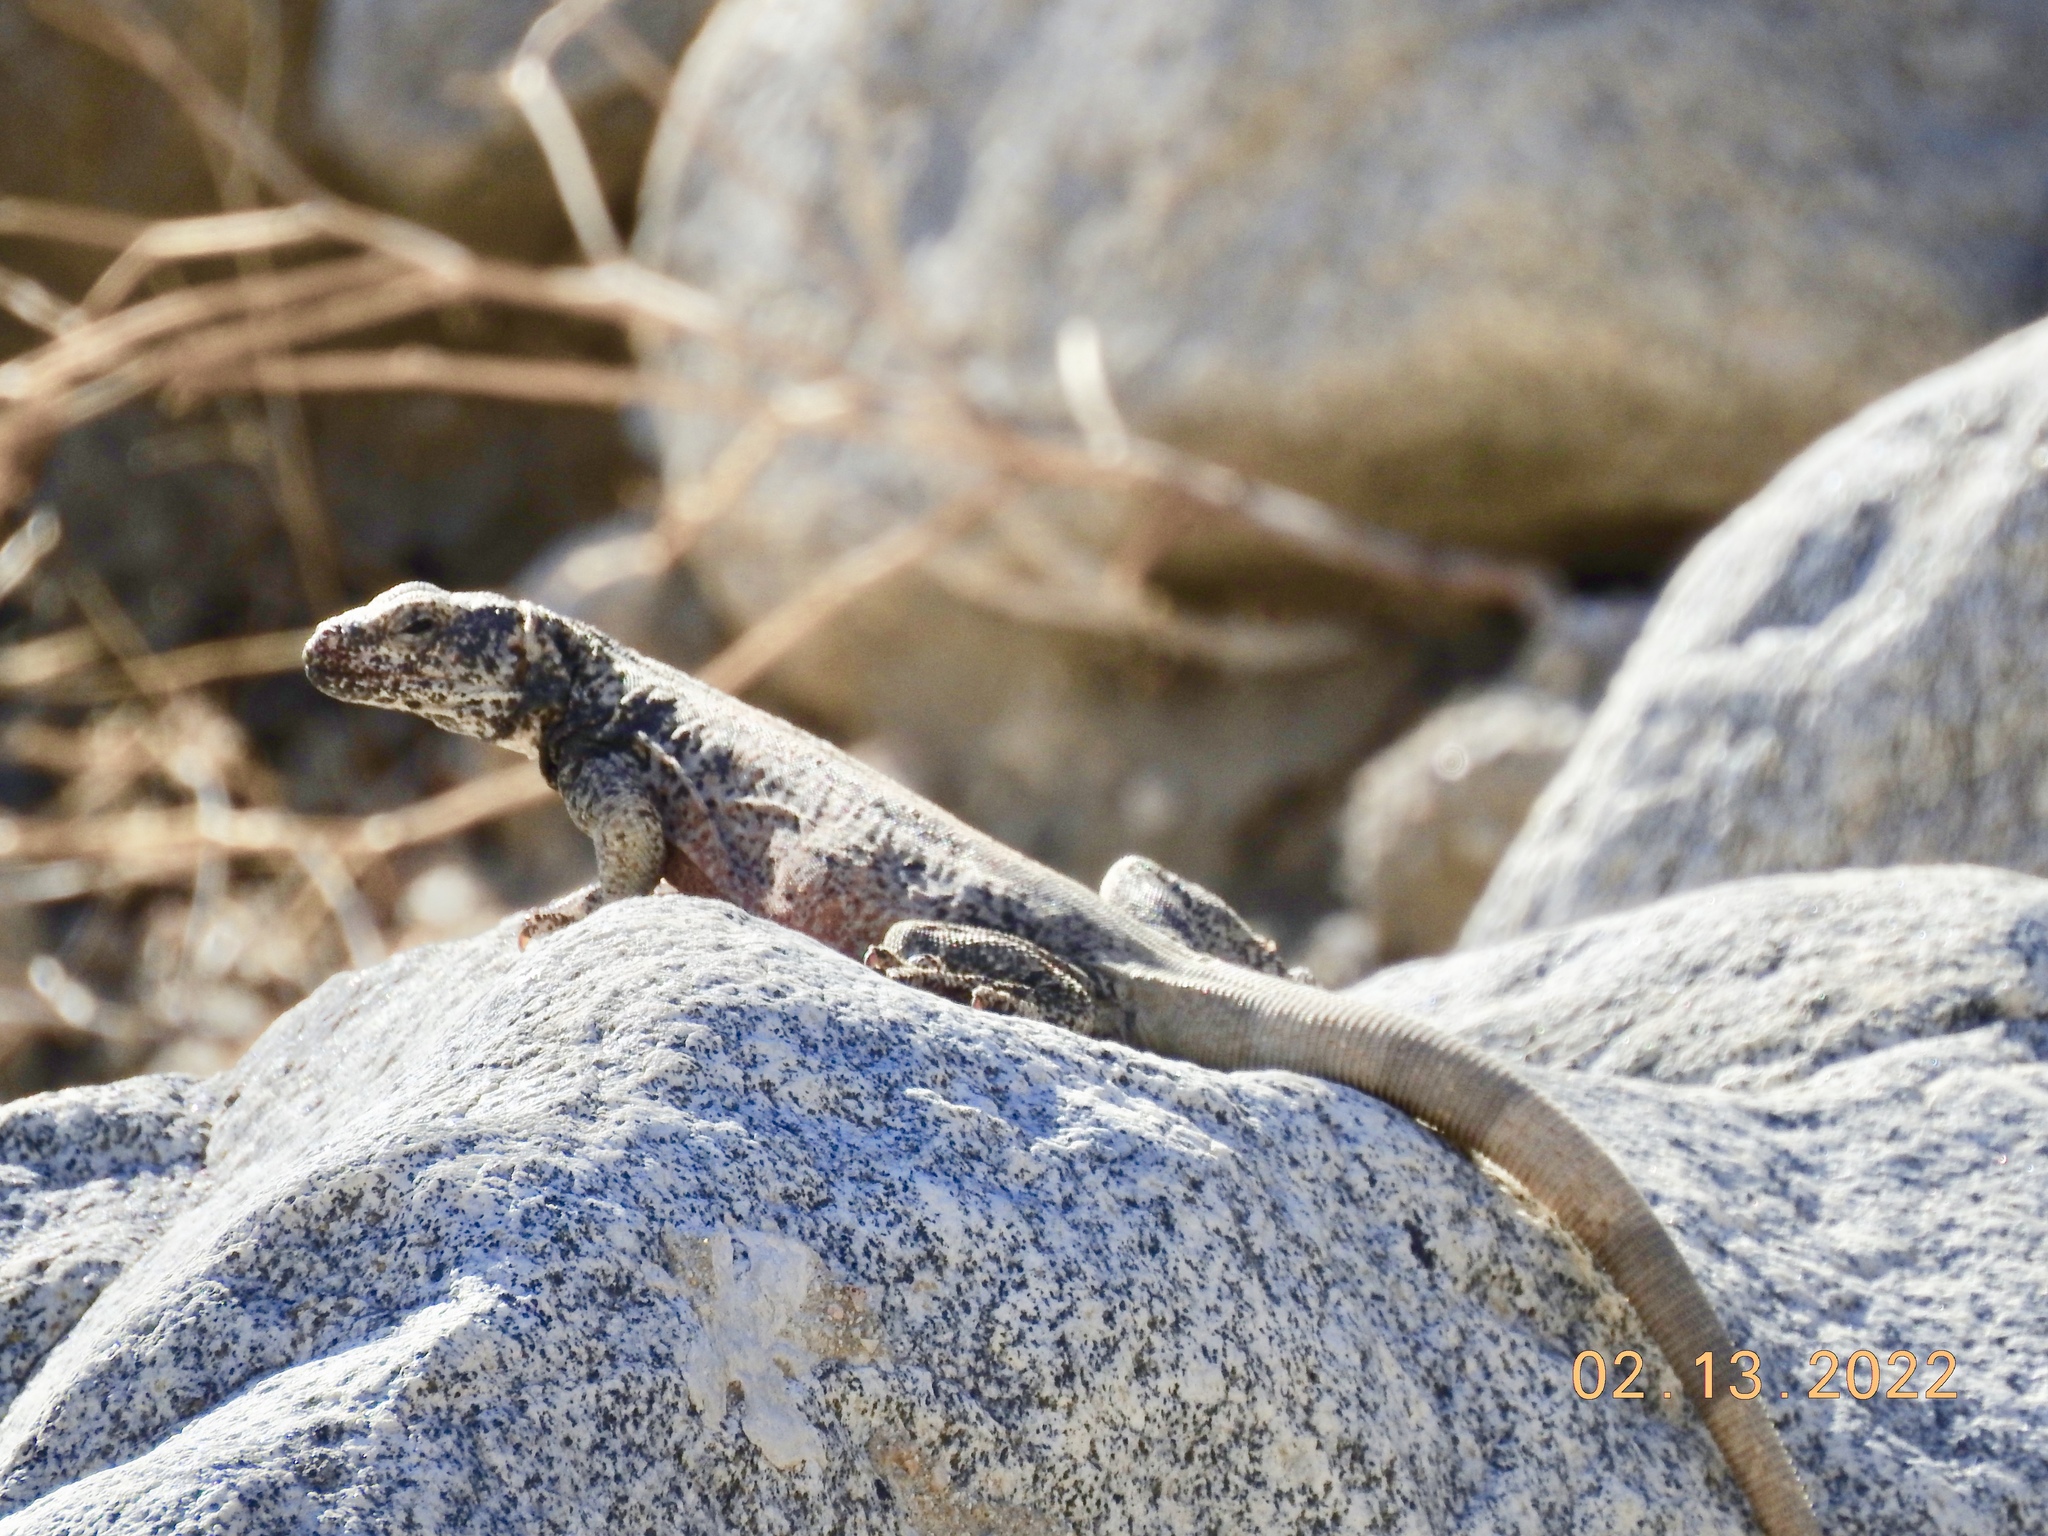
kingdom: Animalia
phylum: Chordata
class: Squamata
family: Iguanidae
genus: Sauromalus
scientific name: Sauromalus ater
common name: Northern chuckwalla
